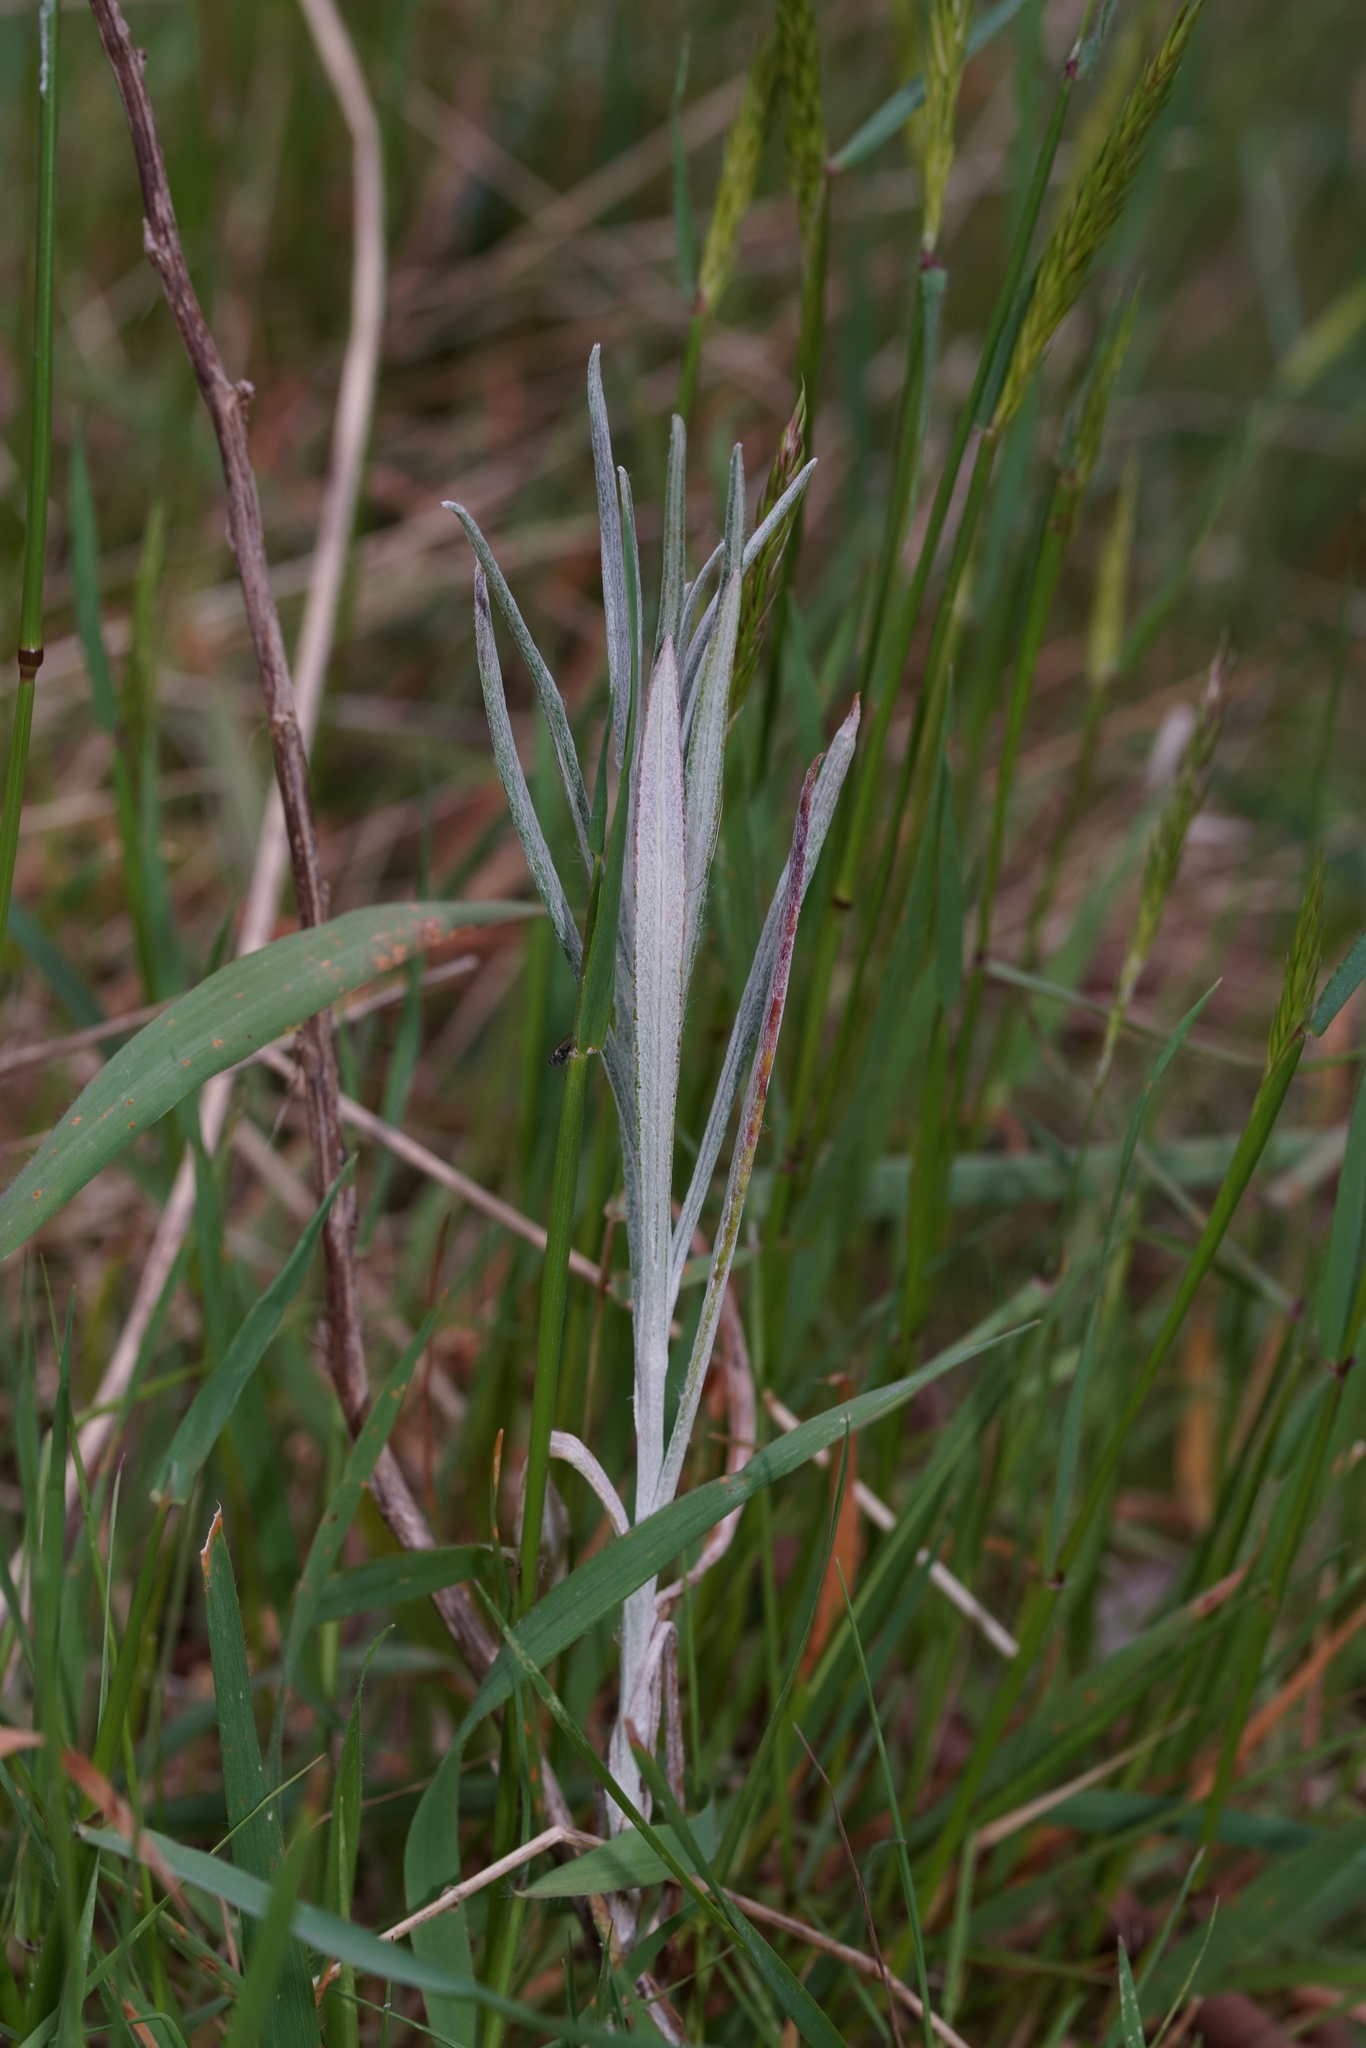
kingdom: Plantae
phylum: Tracheophyta
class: Magnoliopsida
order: Asterales
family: Asteraceae
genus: Senecio
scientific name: Senecio quadridentatus
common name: Cotton fireweed
